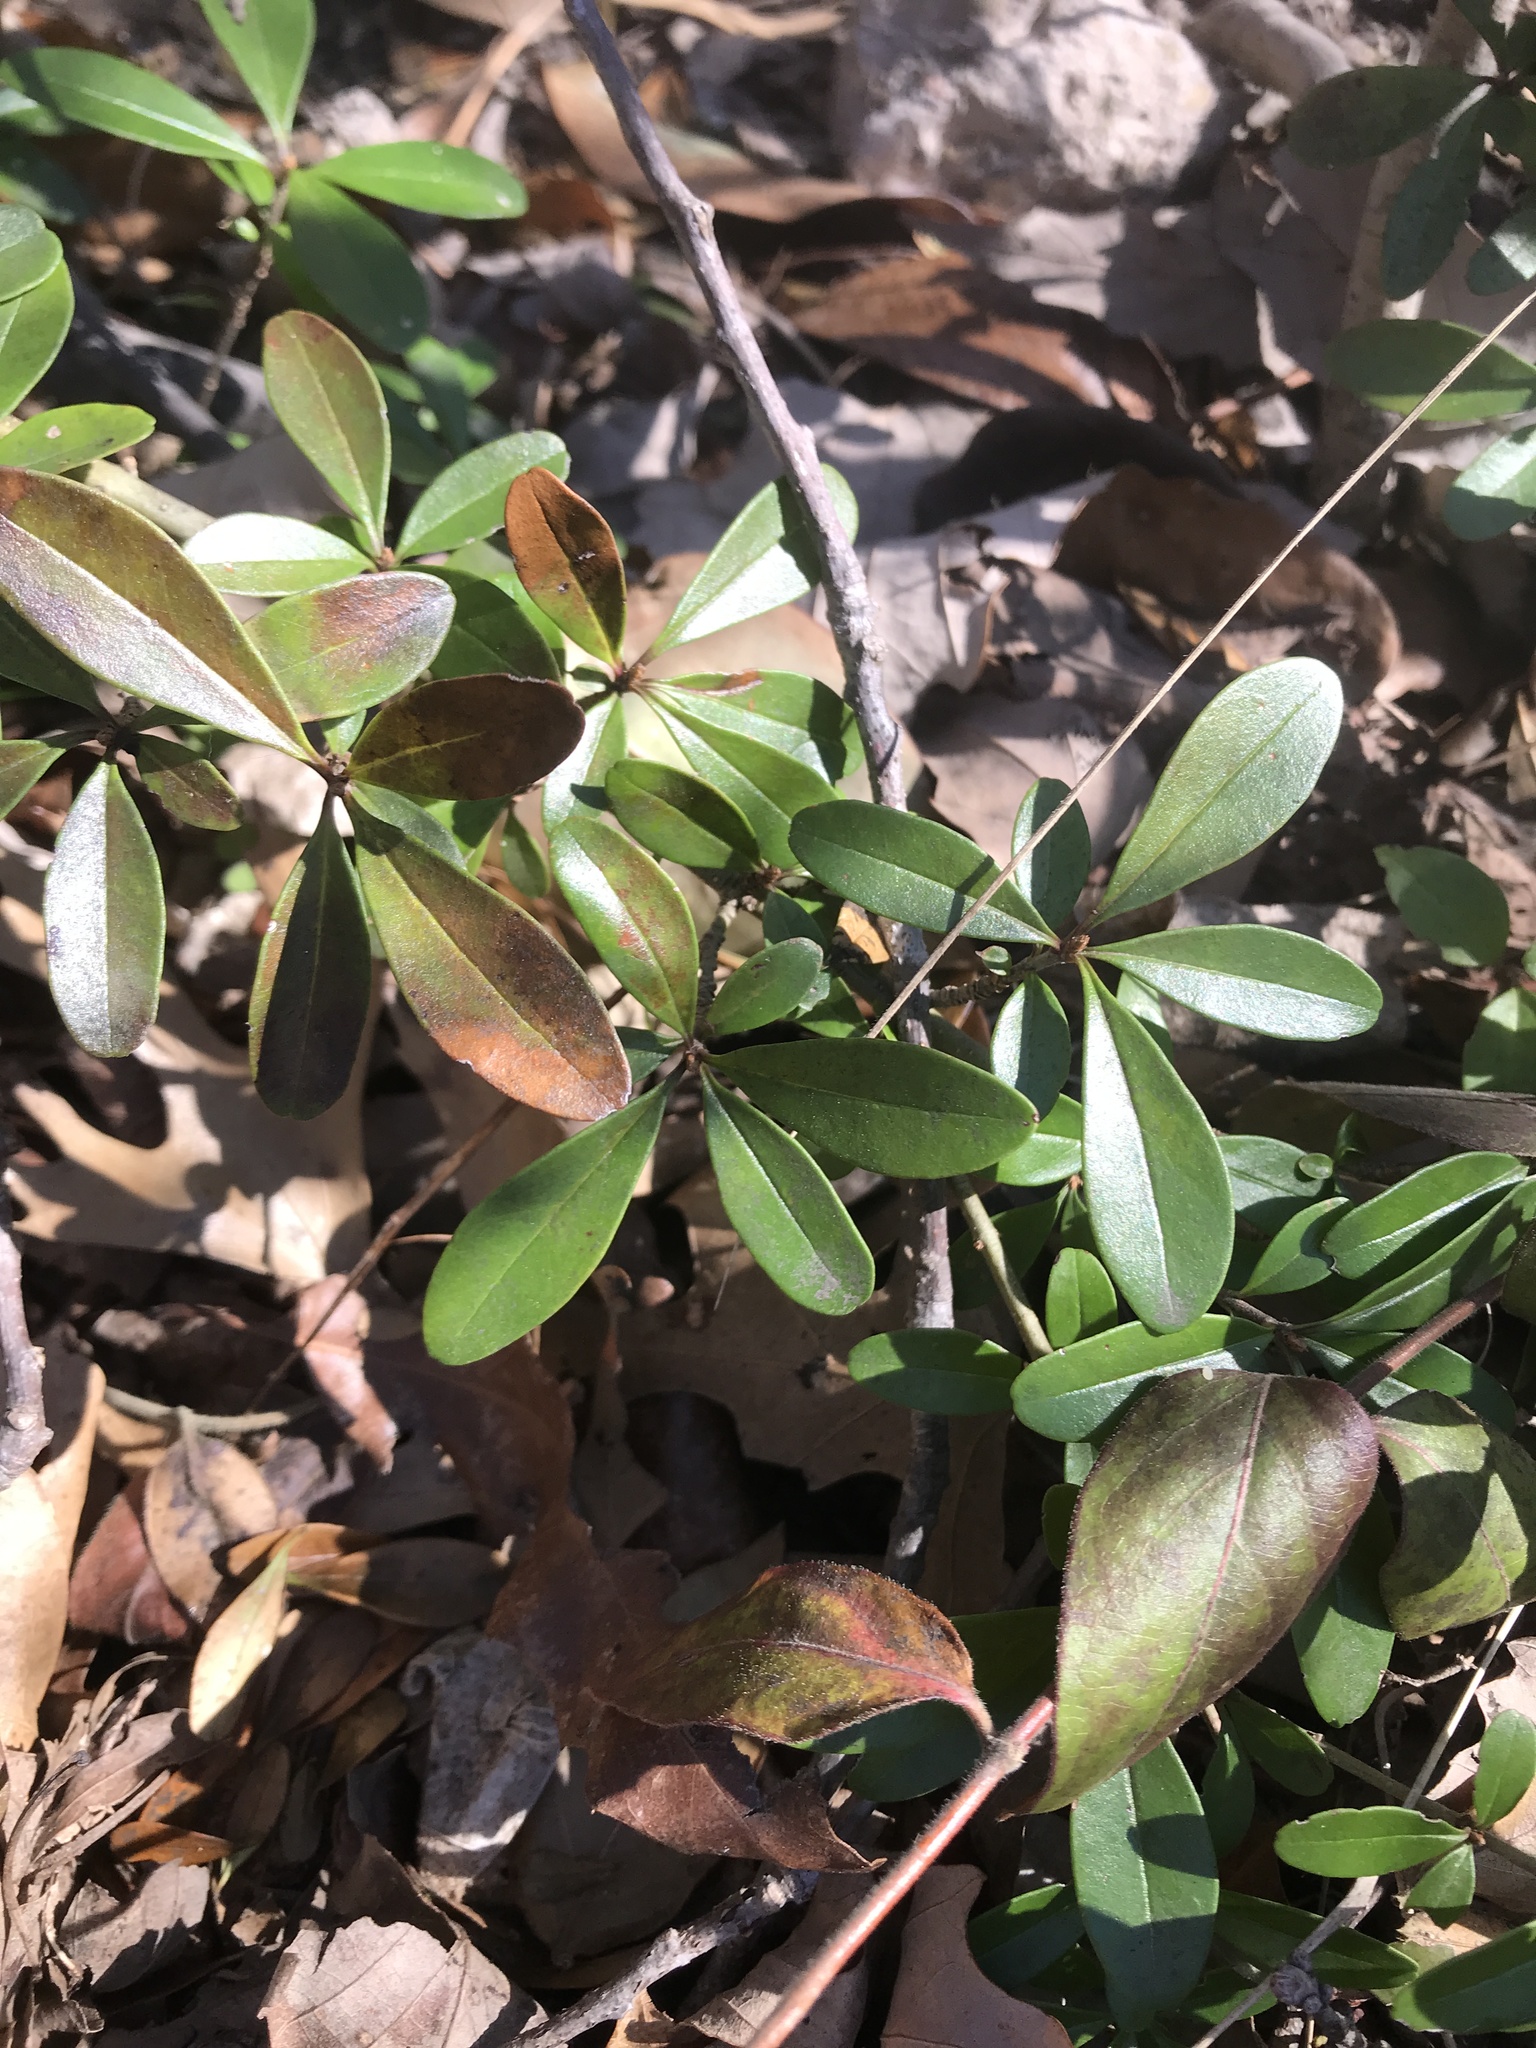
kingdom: Plantae
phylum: Tracheophyta
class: Magnoliopsida
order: Lamiales
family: Oleaceae
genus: Ligustrum
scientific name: Ligustrum quihoui
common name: Waxyleaf privet
